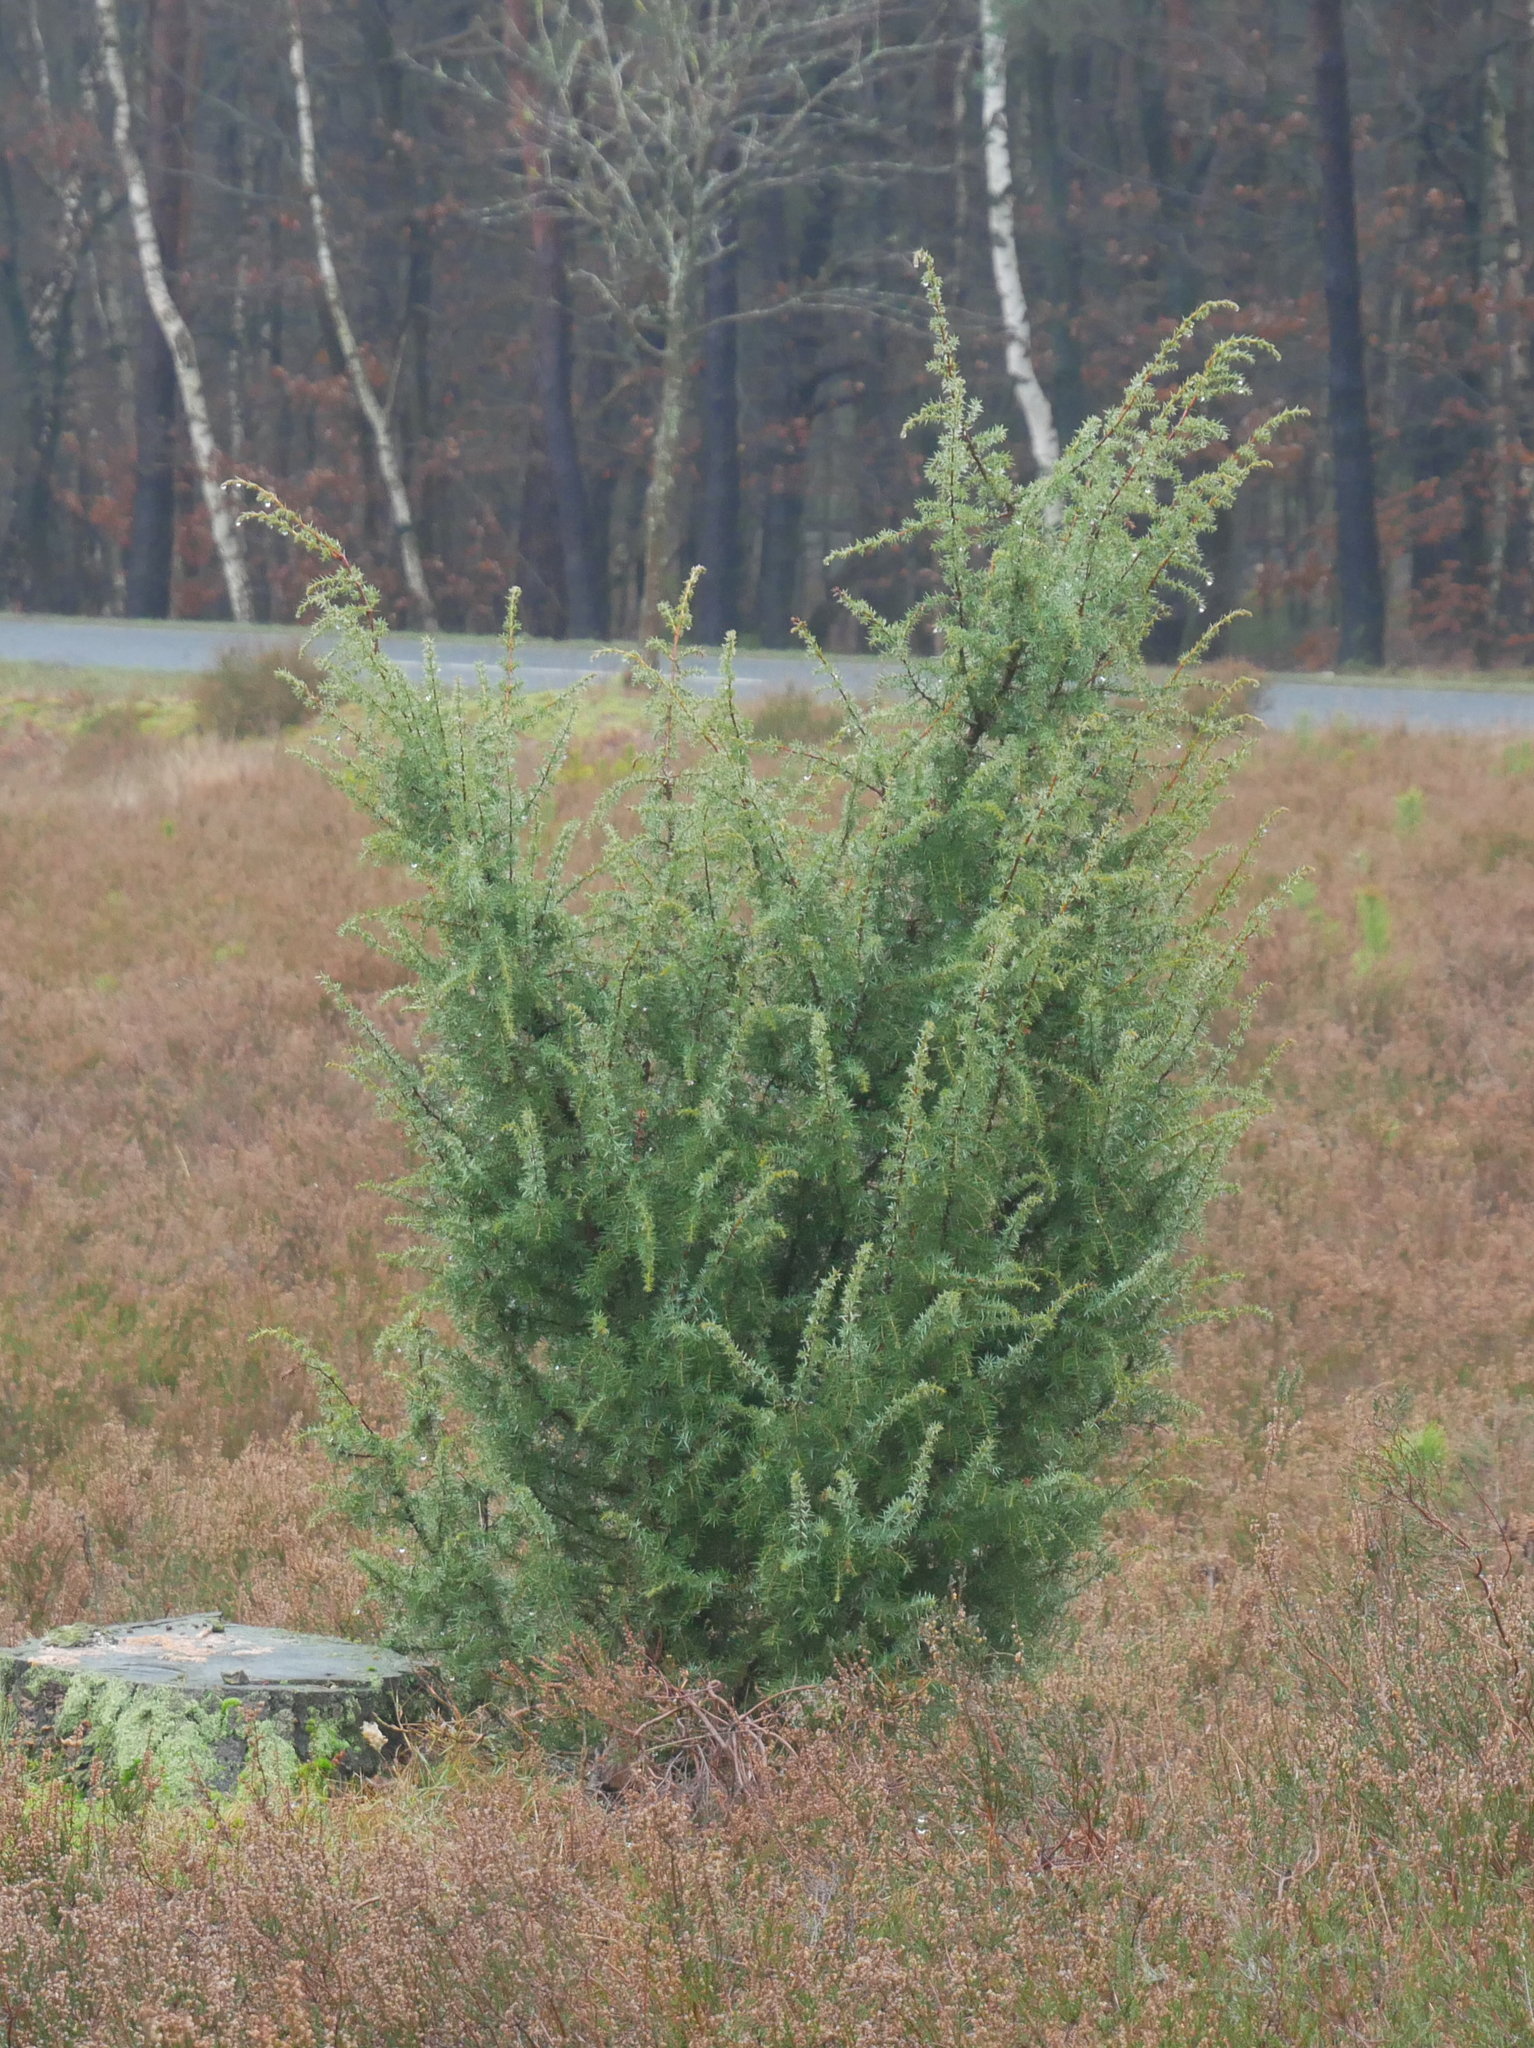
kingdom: Plantae
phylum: Tracheophyta
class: Pinopsida
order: Pinales
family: Cupressaceae
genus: Juniperus
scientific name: Juniperus communis
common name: Common juniper
